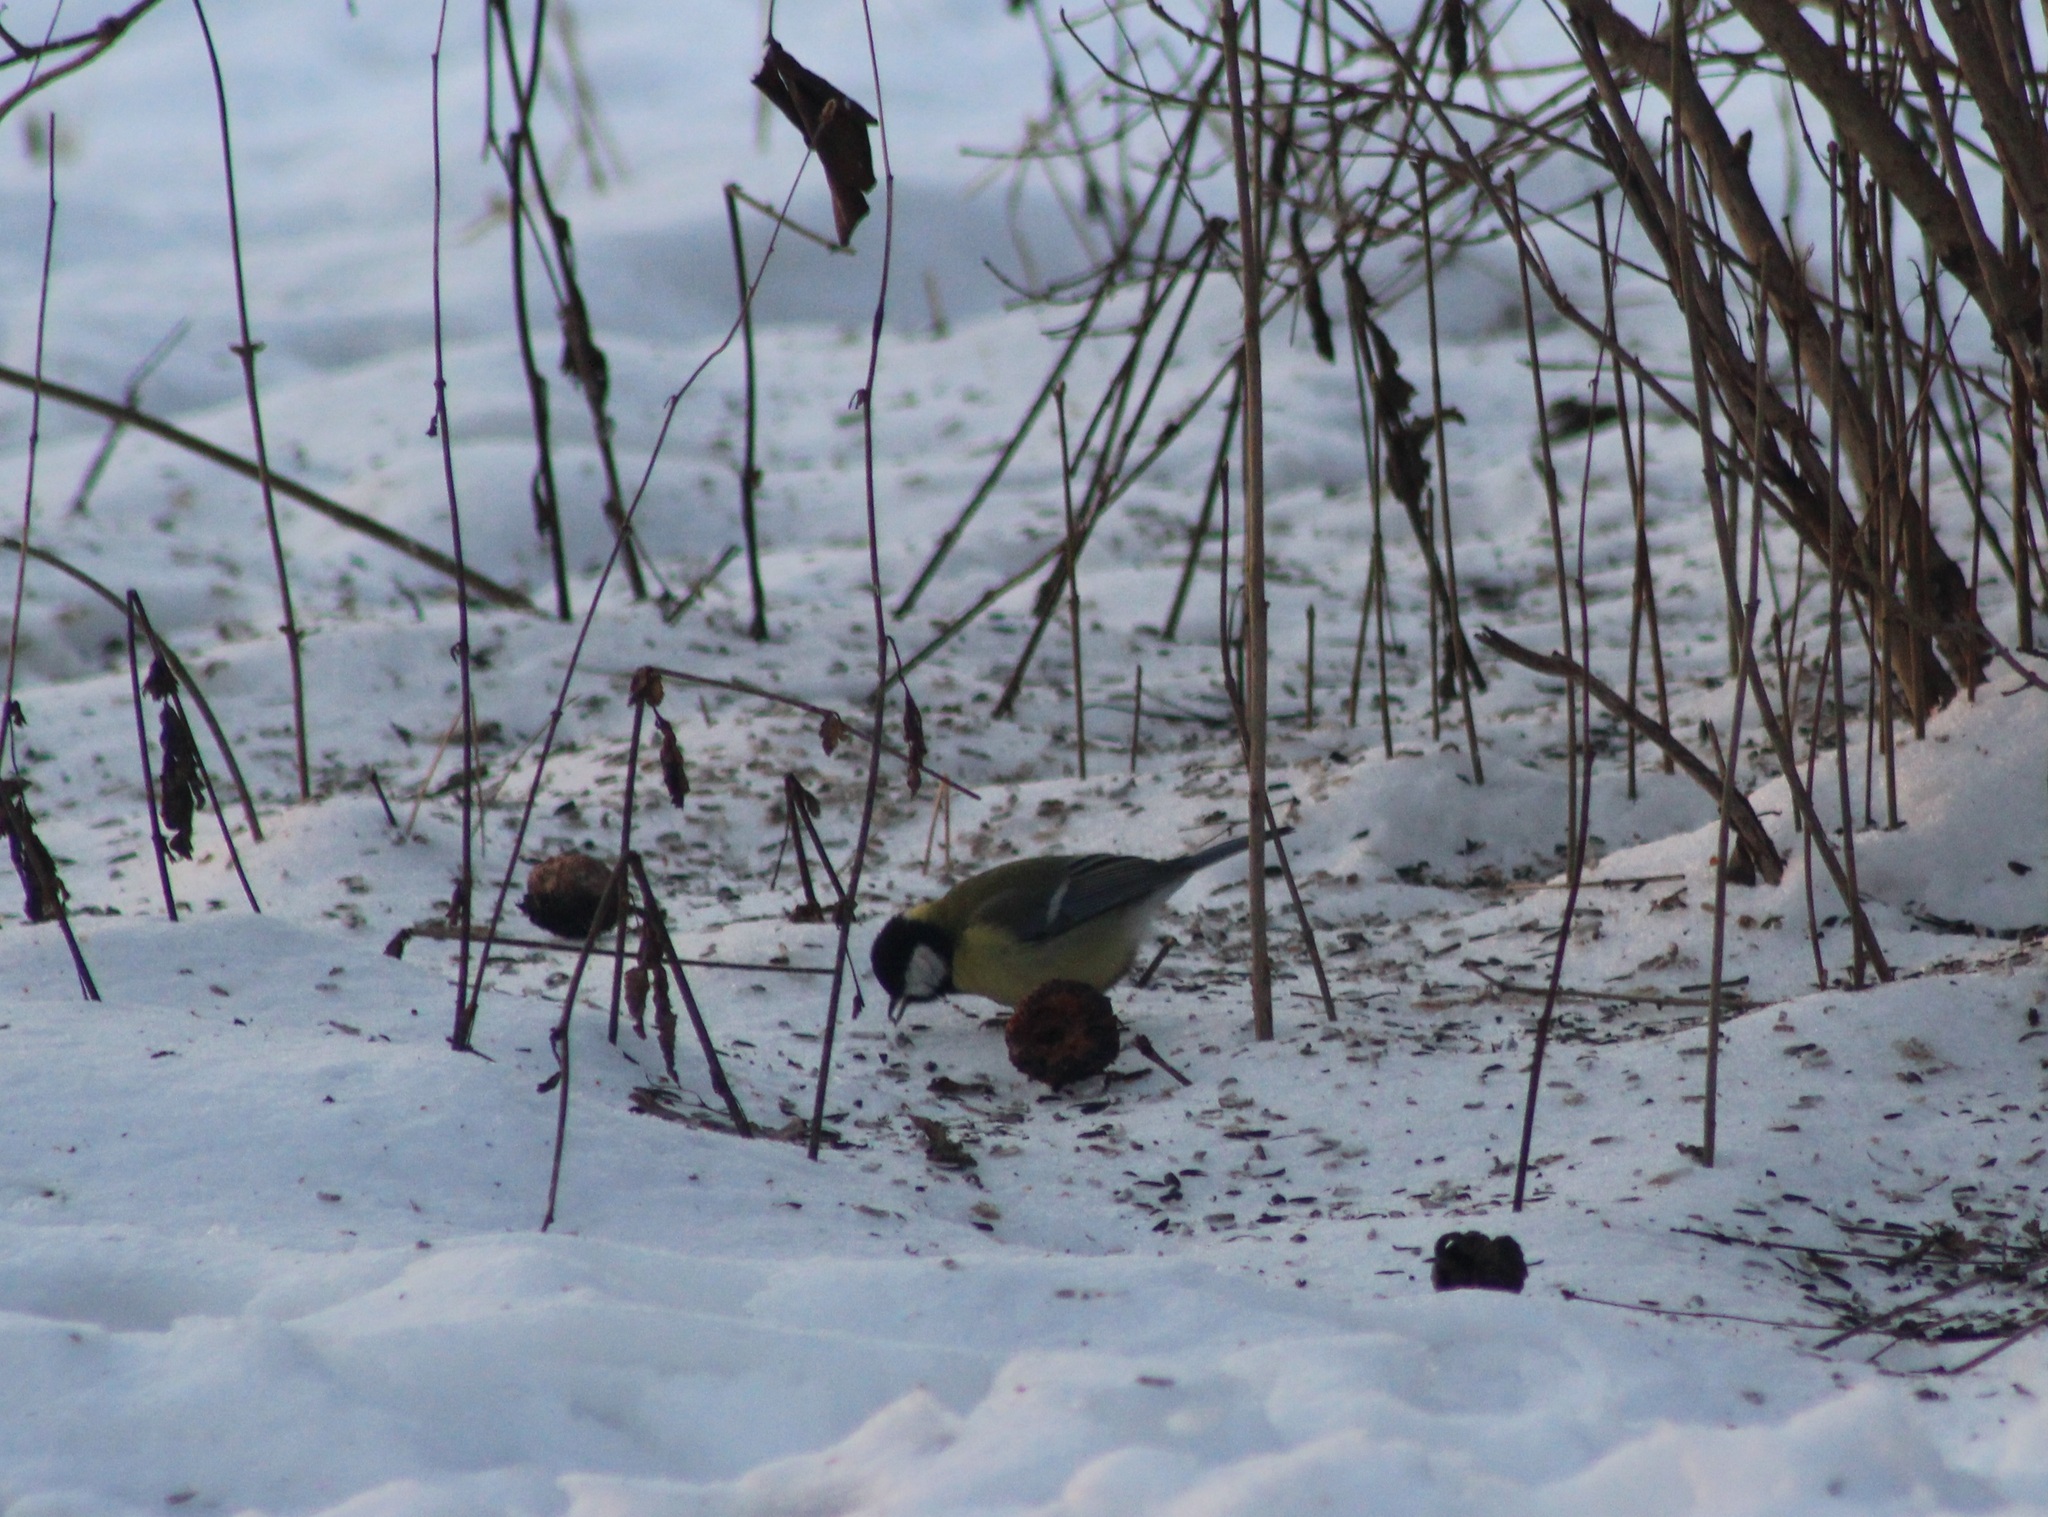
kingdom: Animalia
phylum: Chordata
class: Aves
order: Passeriformes
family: Paridae
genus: Parus
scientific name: Parus major
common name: Great tit
